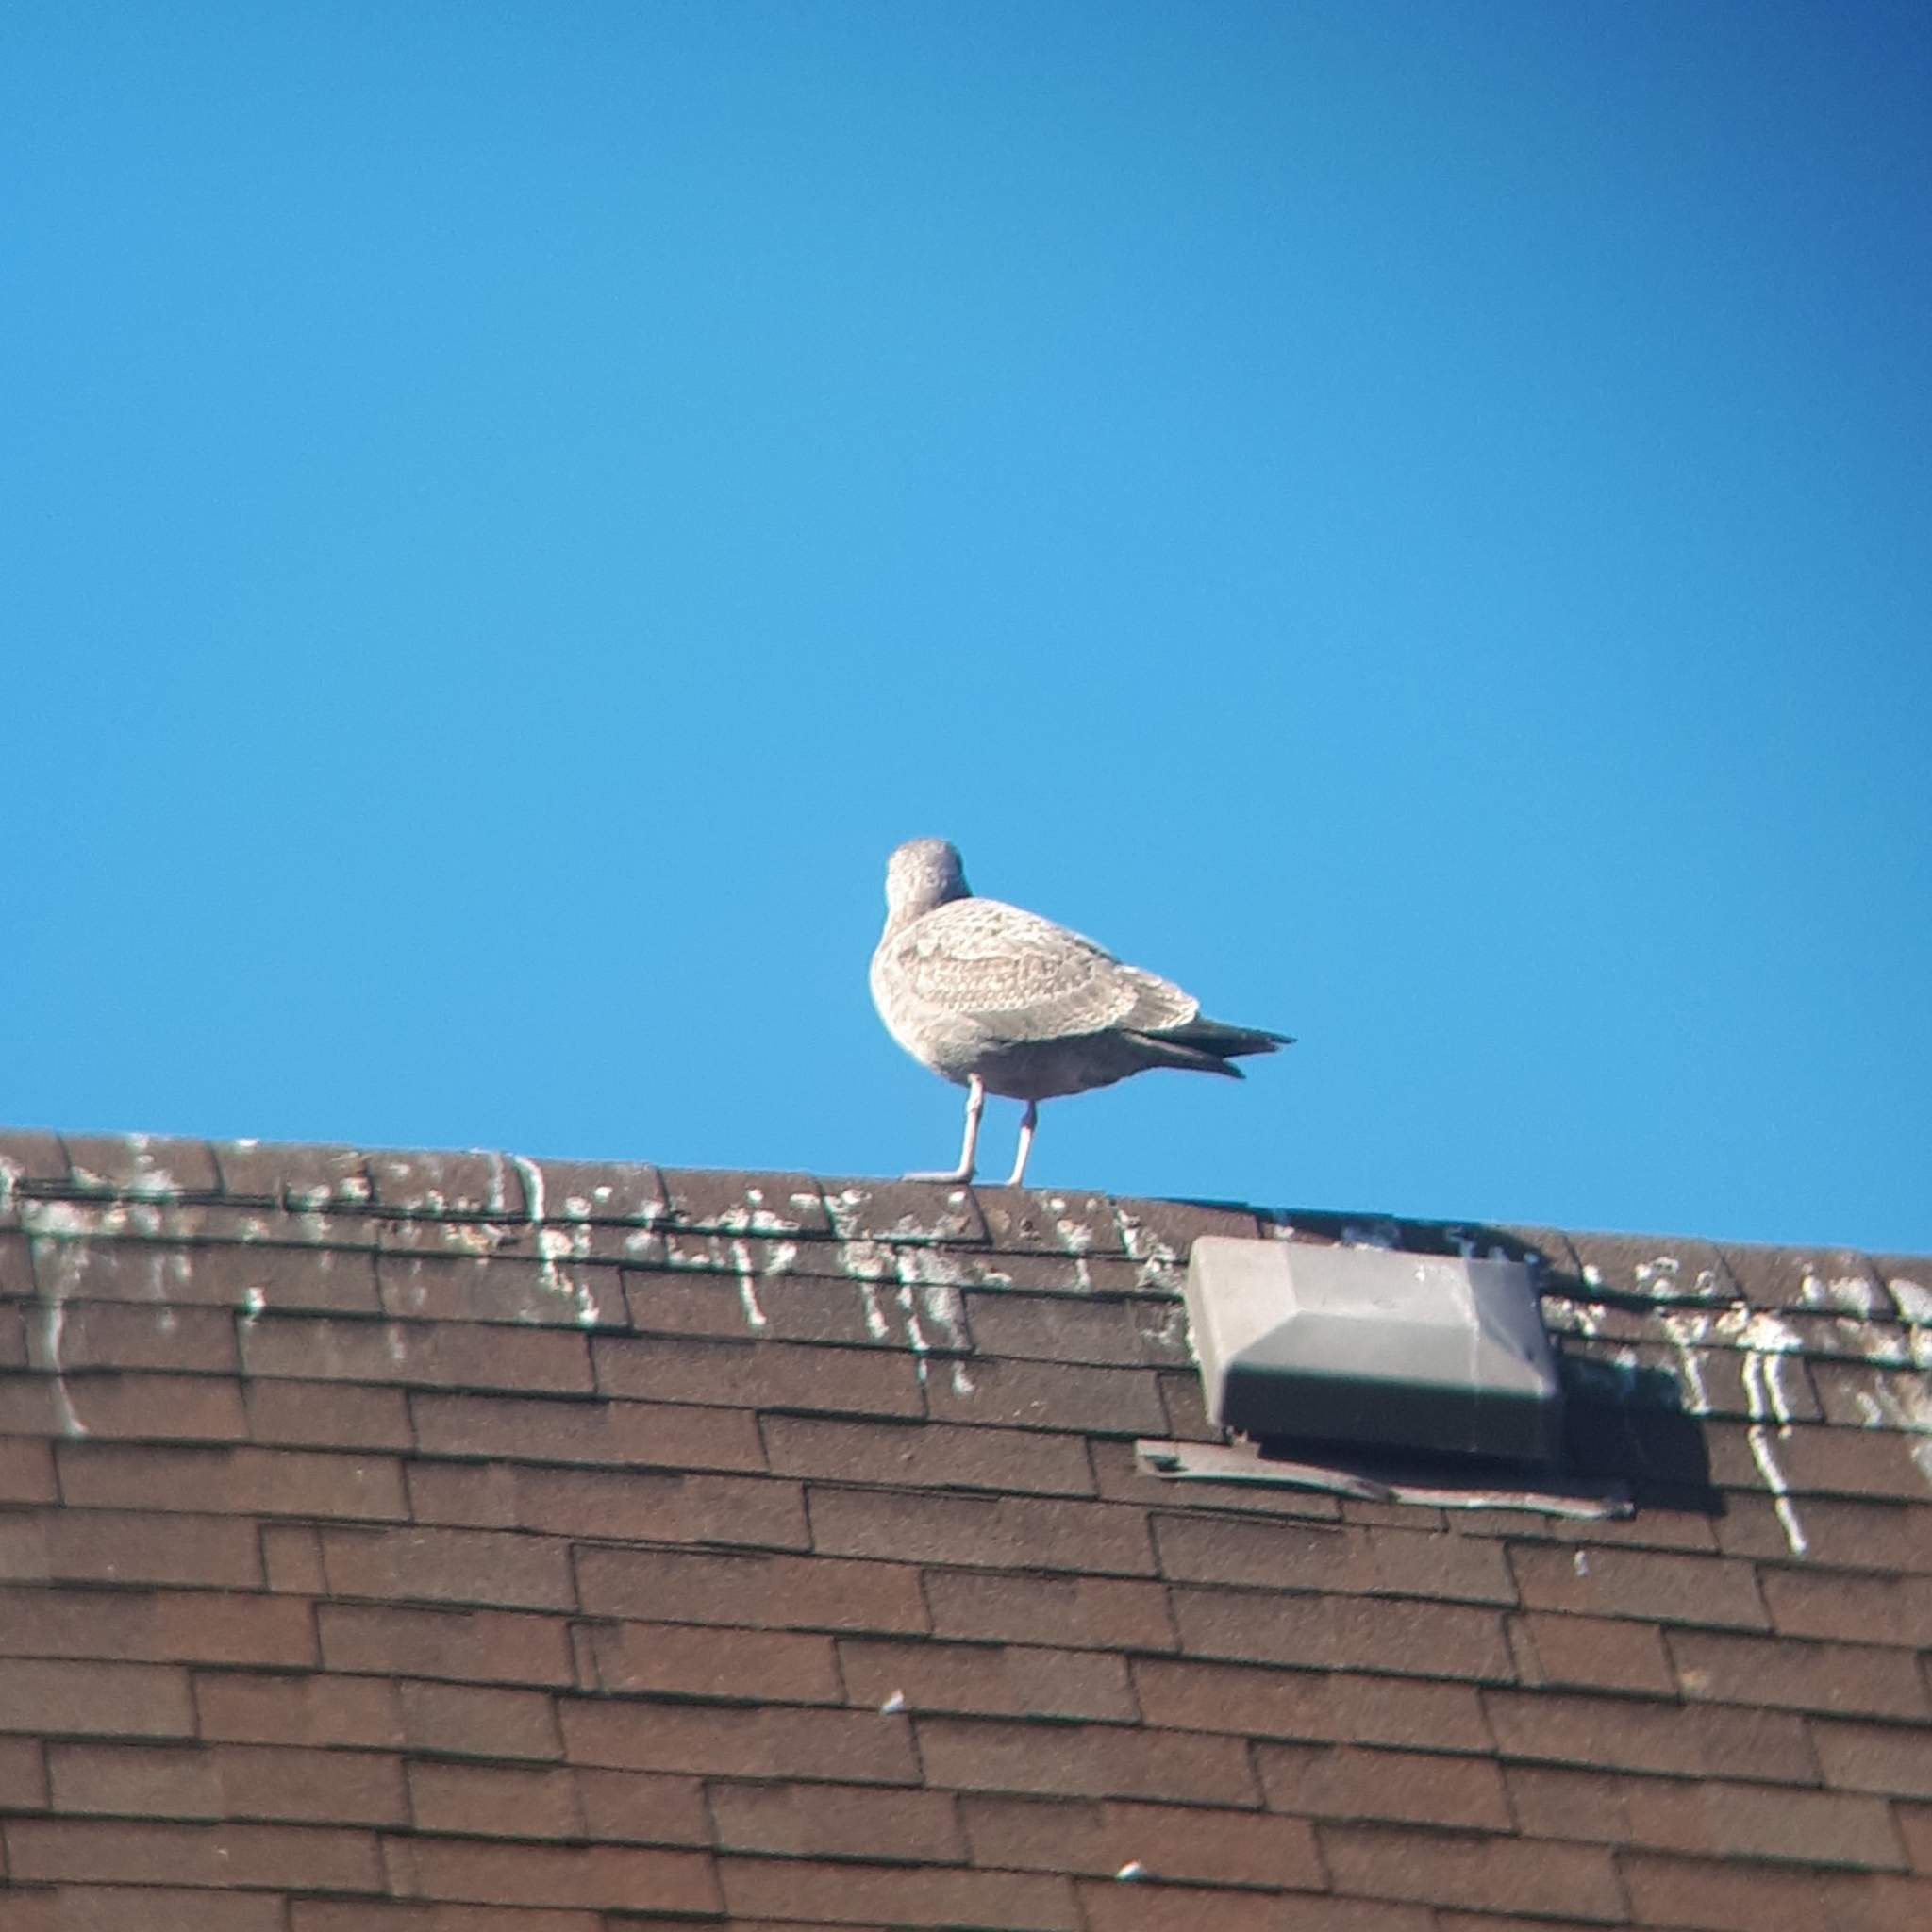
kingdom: Animalia
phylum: Chordata
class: Aves
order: Charadriiformes
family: Laridae
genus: Larus
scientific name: Larus argentatus
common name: Herring gull
